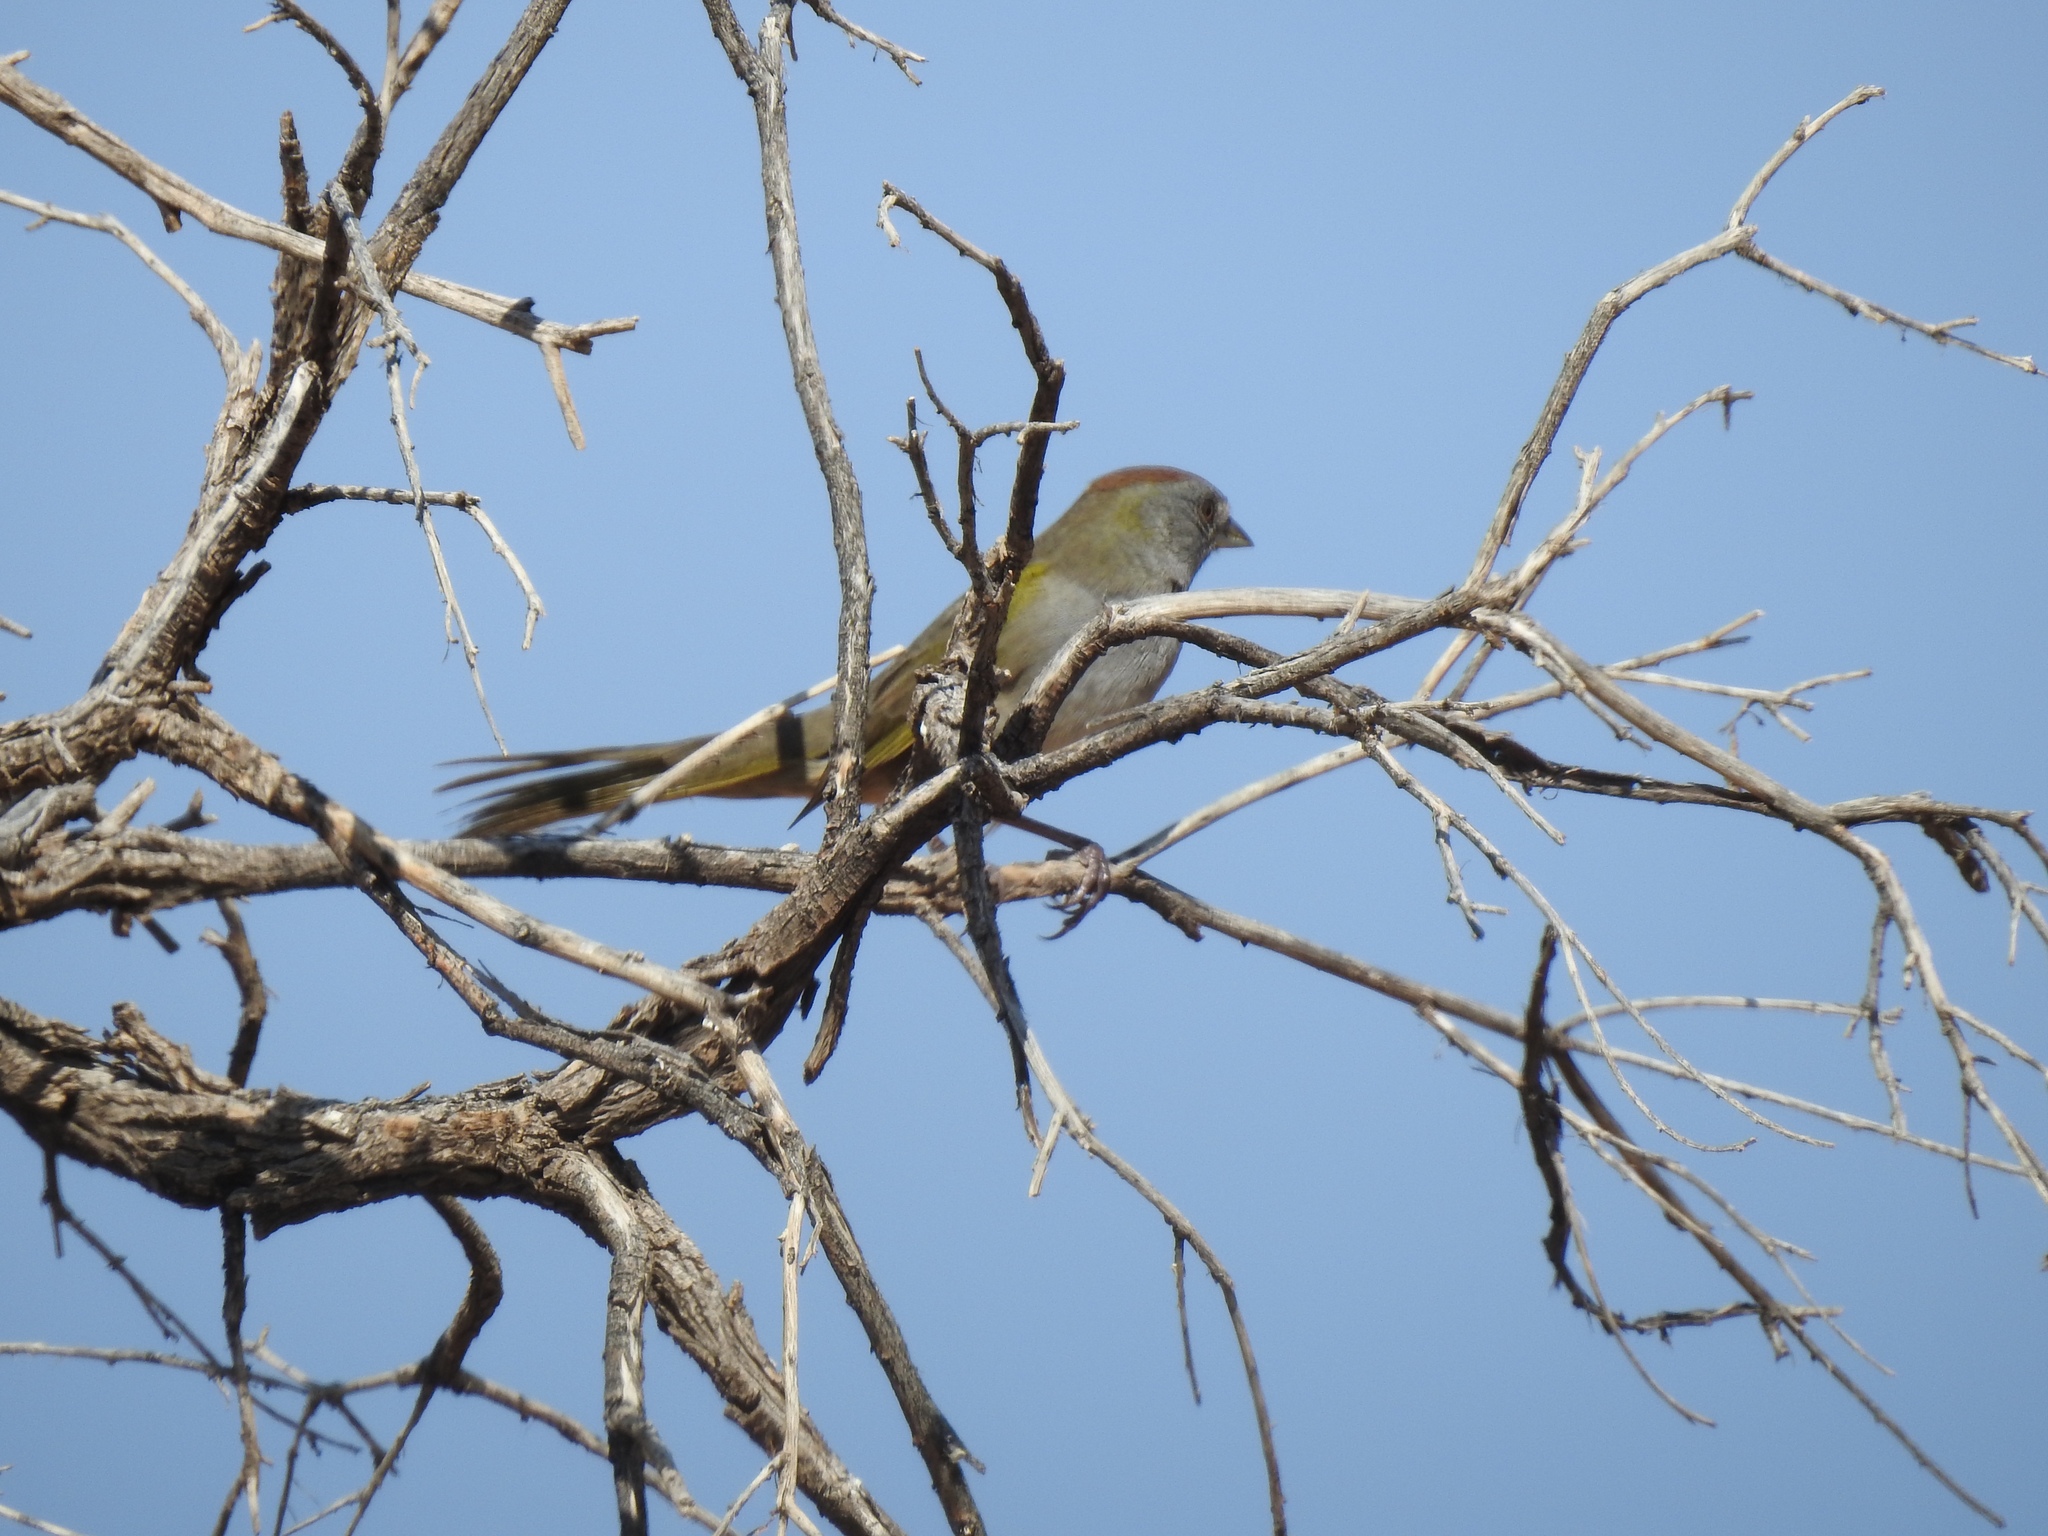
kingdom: Animalia
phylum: Chordata
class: Aves
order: Passeriformes
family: Passerellidae
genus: Pipilo
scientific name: Pipilo chlorurus
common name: Green-tailed towhee
